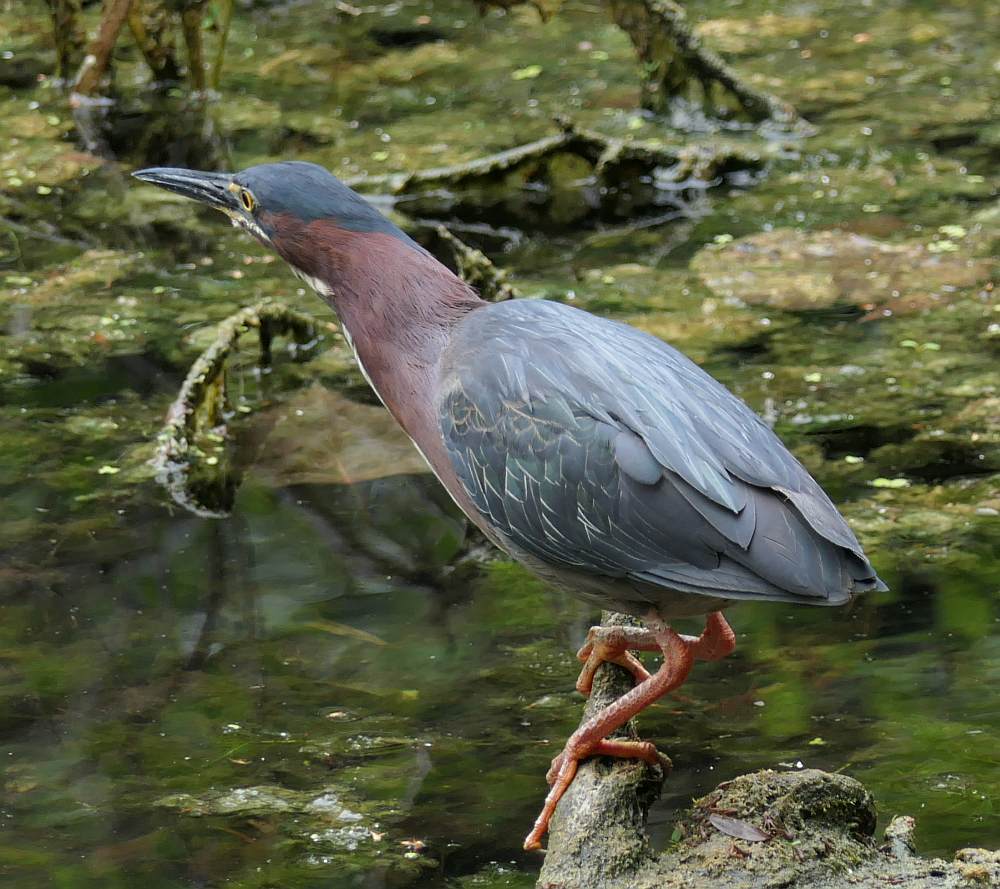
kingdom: Animalia
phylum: Chordata
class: Aves
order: Pelecaniformes
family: Ardeidae
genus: Butorides
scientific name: Butorides virescens
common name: Green heron
